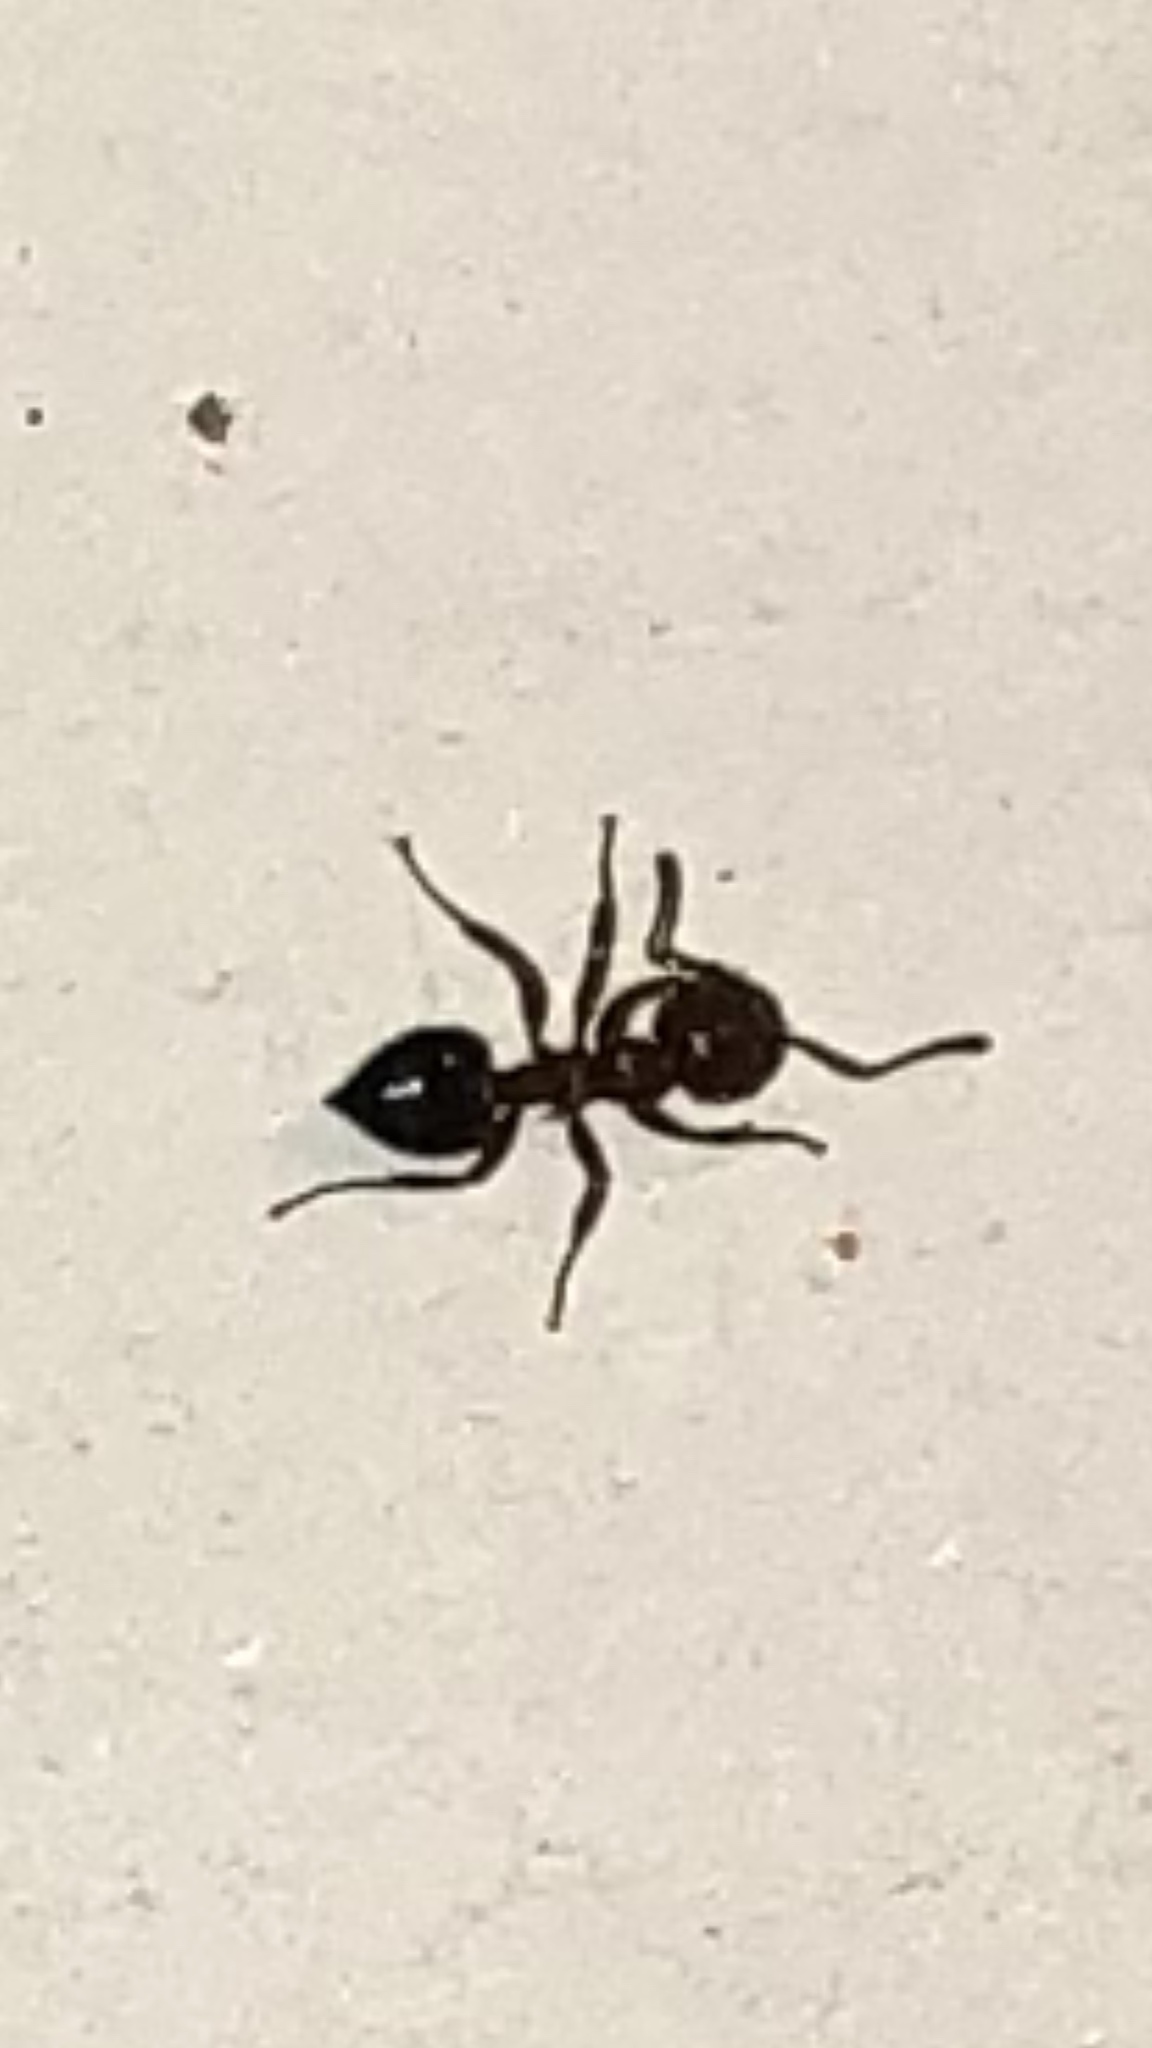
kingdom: Animalia
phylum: Arthropoda
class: Insecta
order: Hymenoptera
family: Formicidae
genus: Crematogaster
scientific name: Crematogaster laeviuscula
